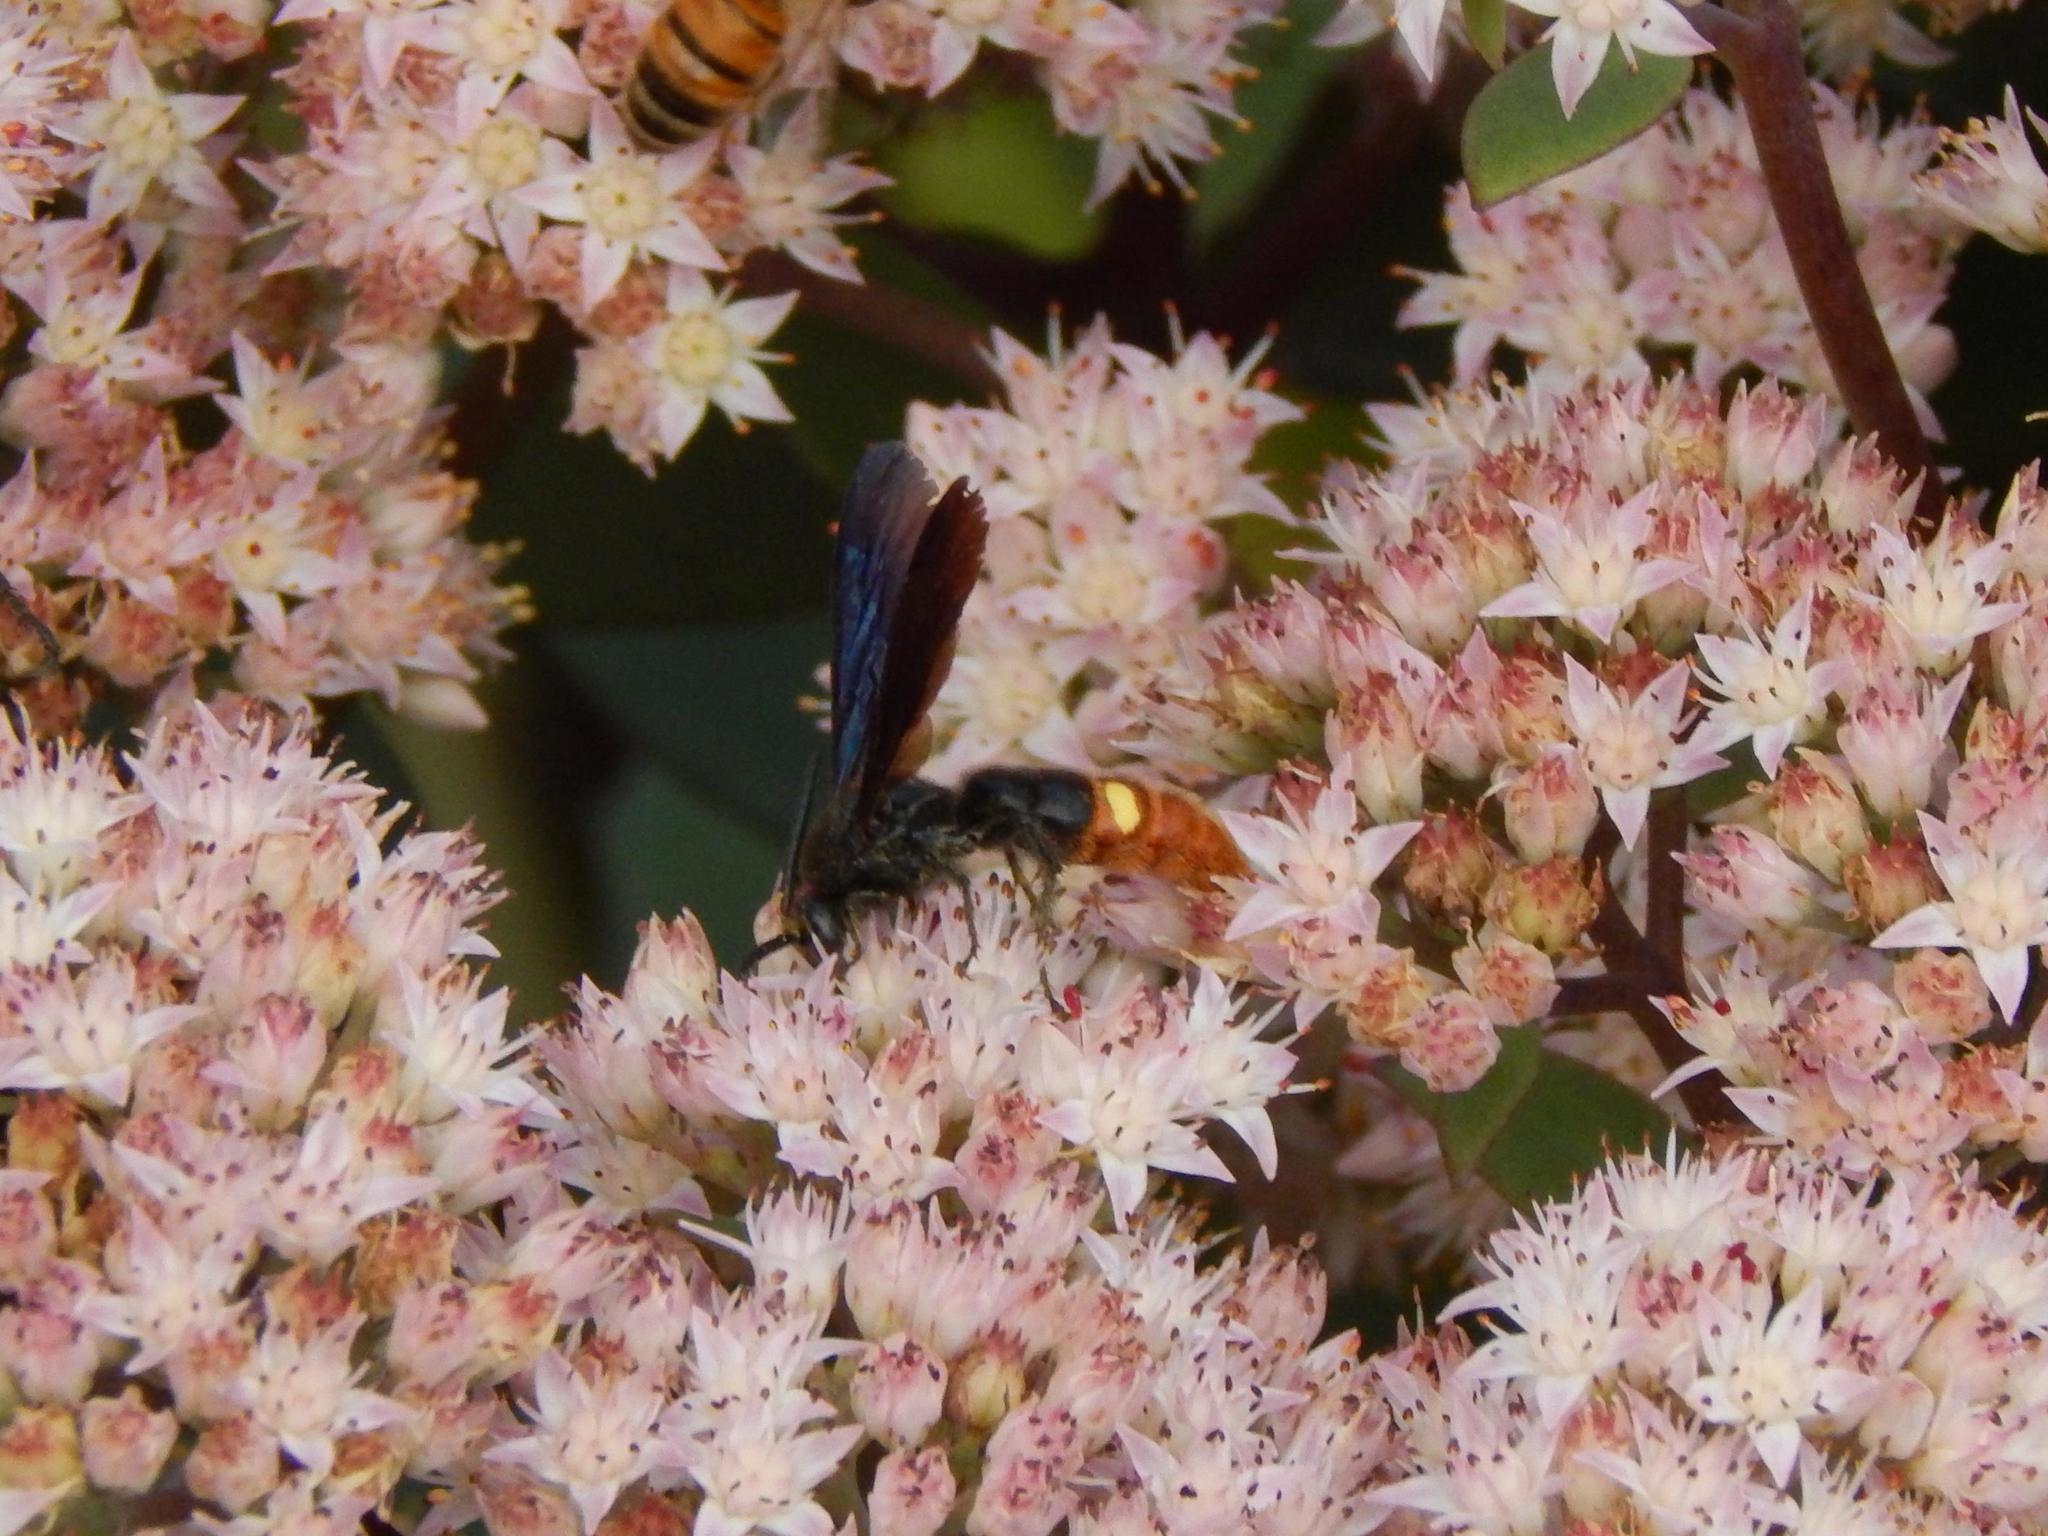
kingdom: Animalia
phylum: Arthropoda
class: Insecta
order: Hymenoptera
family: Scoliidae
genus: Scolia
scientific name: Scolia dubia
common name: Blue-winged scoliid wasp
